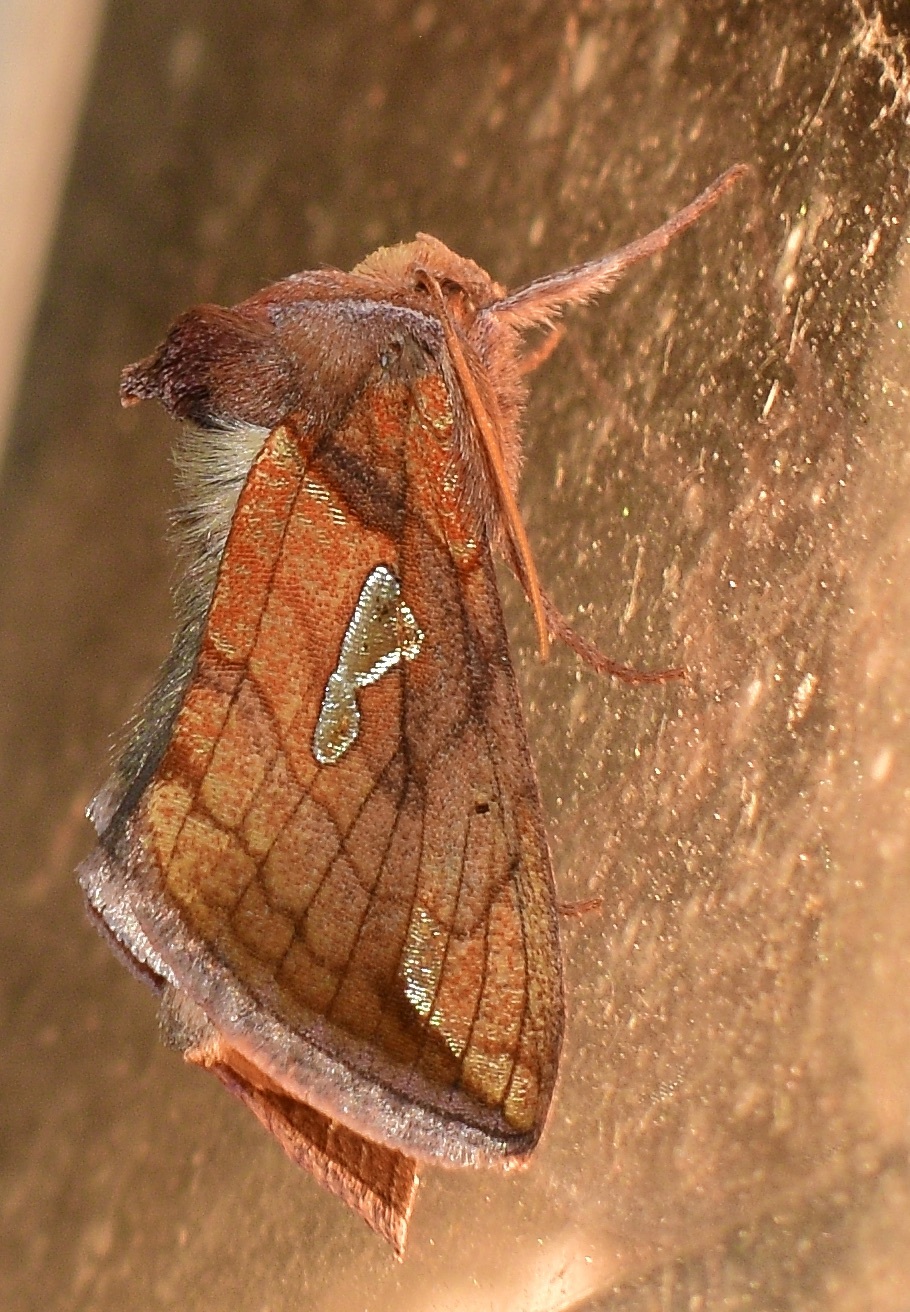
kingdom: Animalia
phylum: Arthropoda
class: Insecta
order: Lepidoptera
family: Noctuidae
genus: Plusia
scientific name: Plusia putnami
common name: Lempke's gold spot
